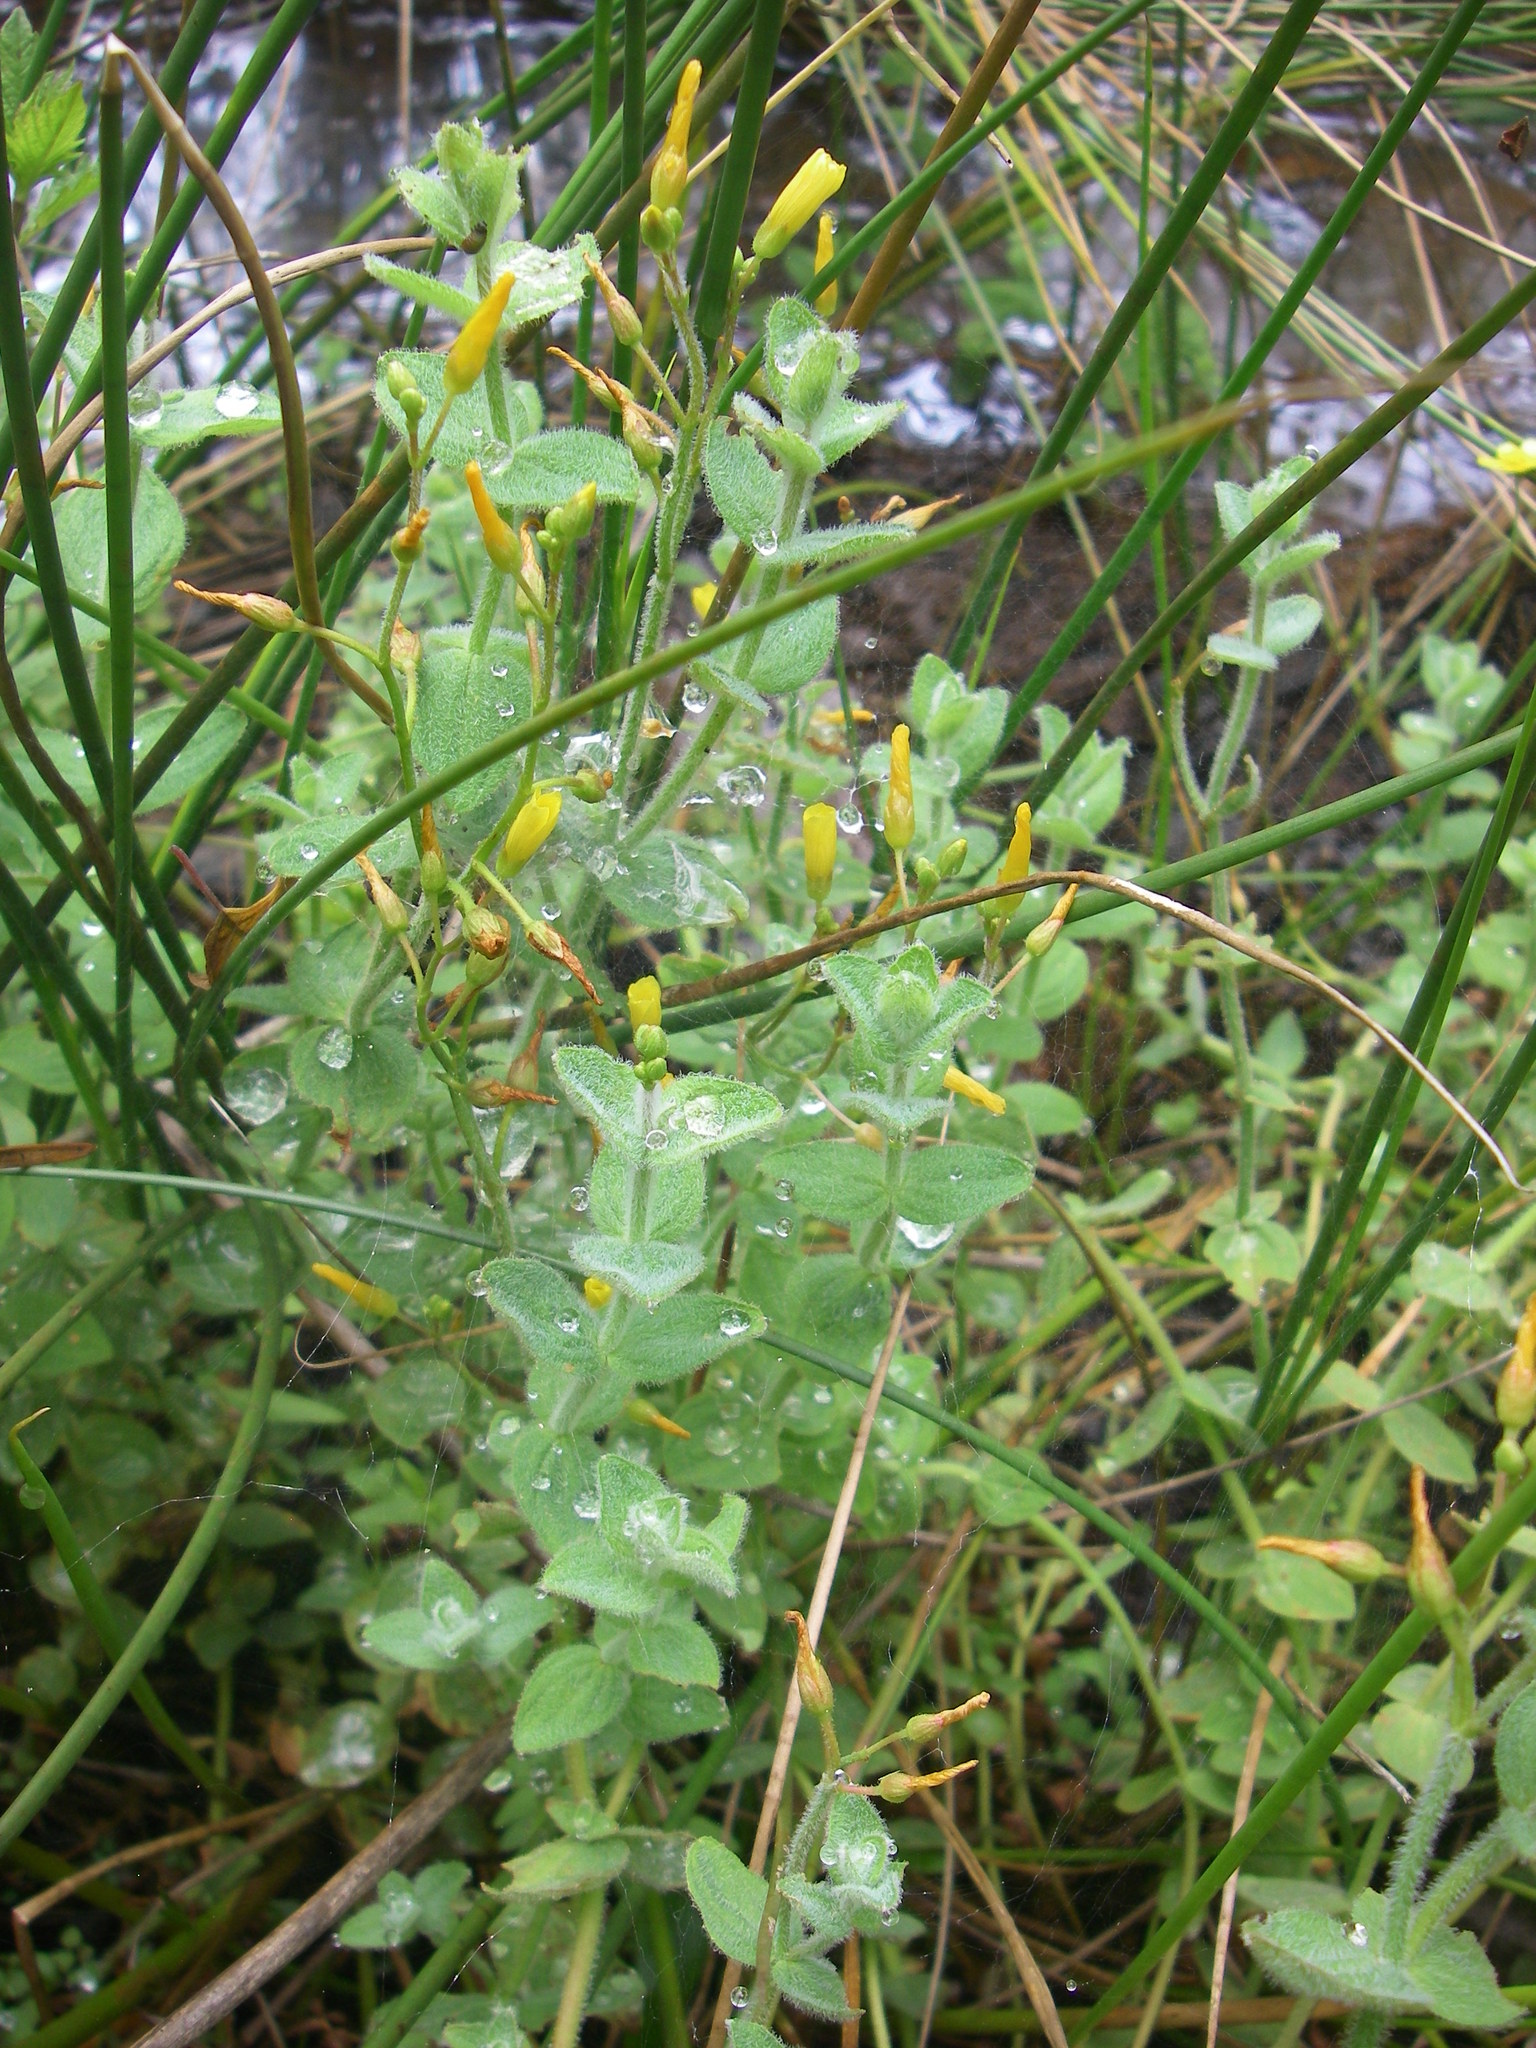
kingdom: Plantae
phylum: Tracheophyta
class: Magnoliopsida
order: Malpighiales
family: Hypericaceae
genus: Hypericum
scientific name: Hypericum elodes
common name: Marsh st. john's-wort
